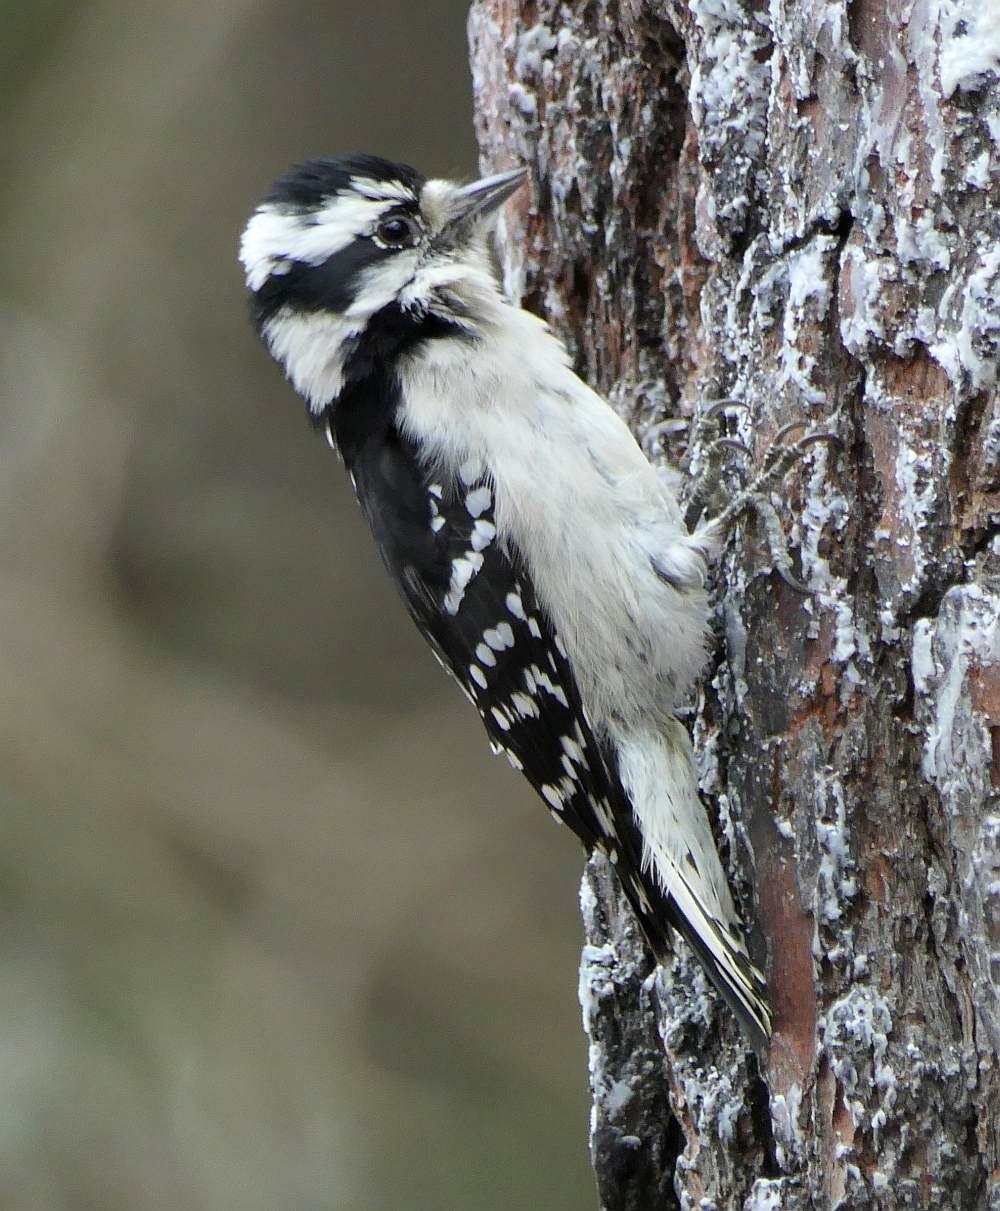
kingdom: Animalia
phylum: Chordata
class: Aves
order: Piciformes
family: Picidae
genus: Dryobates
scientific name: Dryobates pubescens
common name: Downy woodpecker
